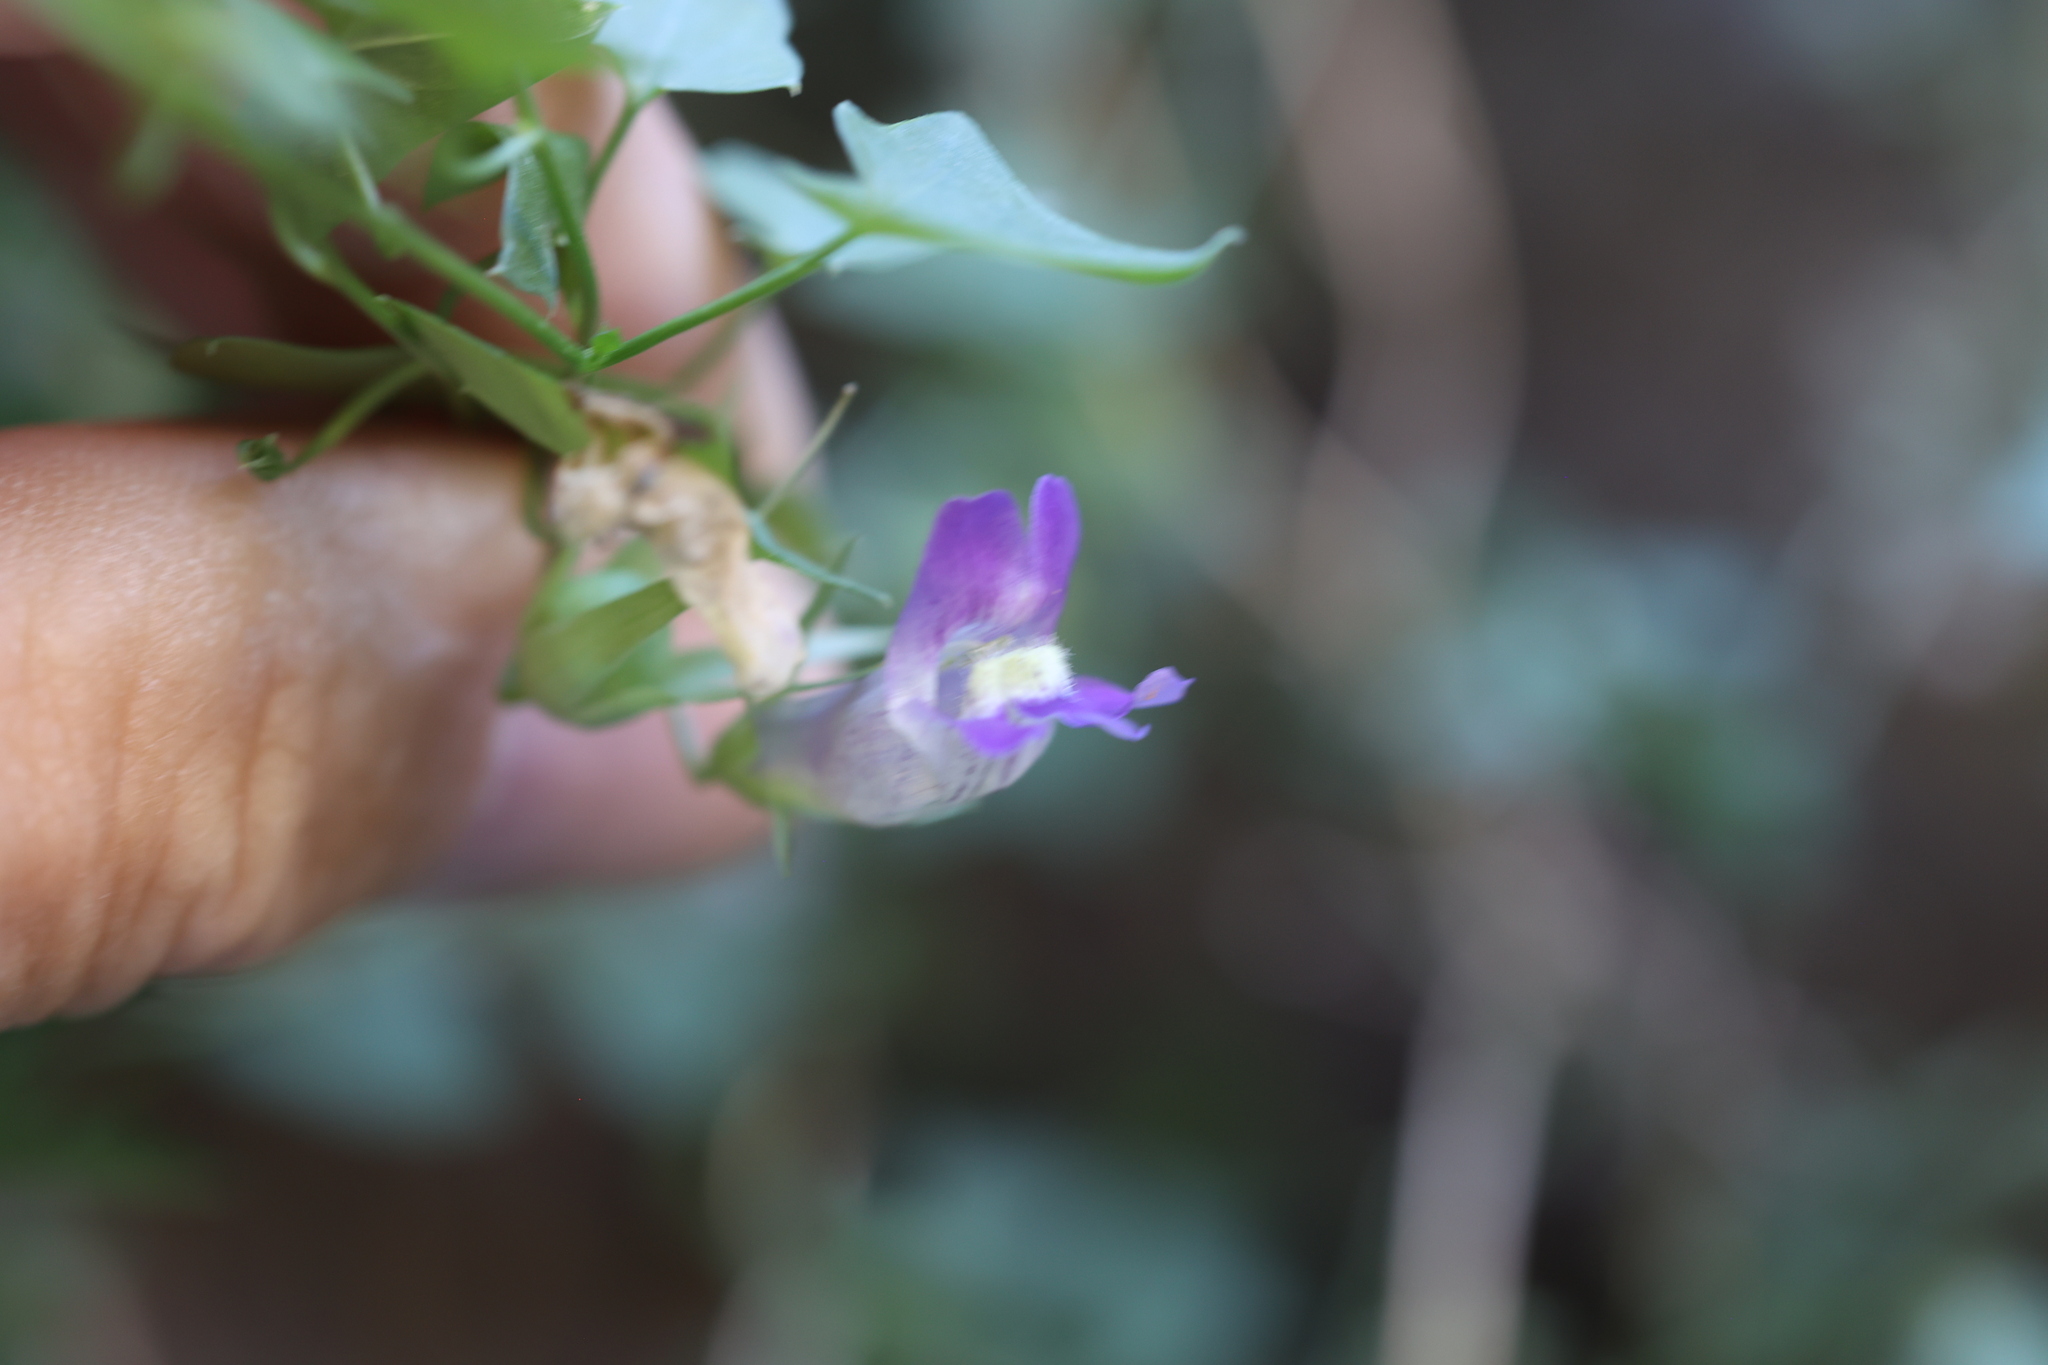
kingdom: Plantae
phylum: Tracheophyta
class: Magnoliopsida
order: Lamiales
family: Plantaginaceae
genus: Maurandella
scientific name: Maurandella antirrhiniflora
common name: Violet twining-snapdragon
